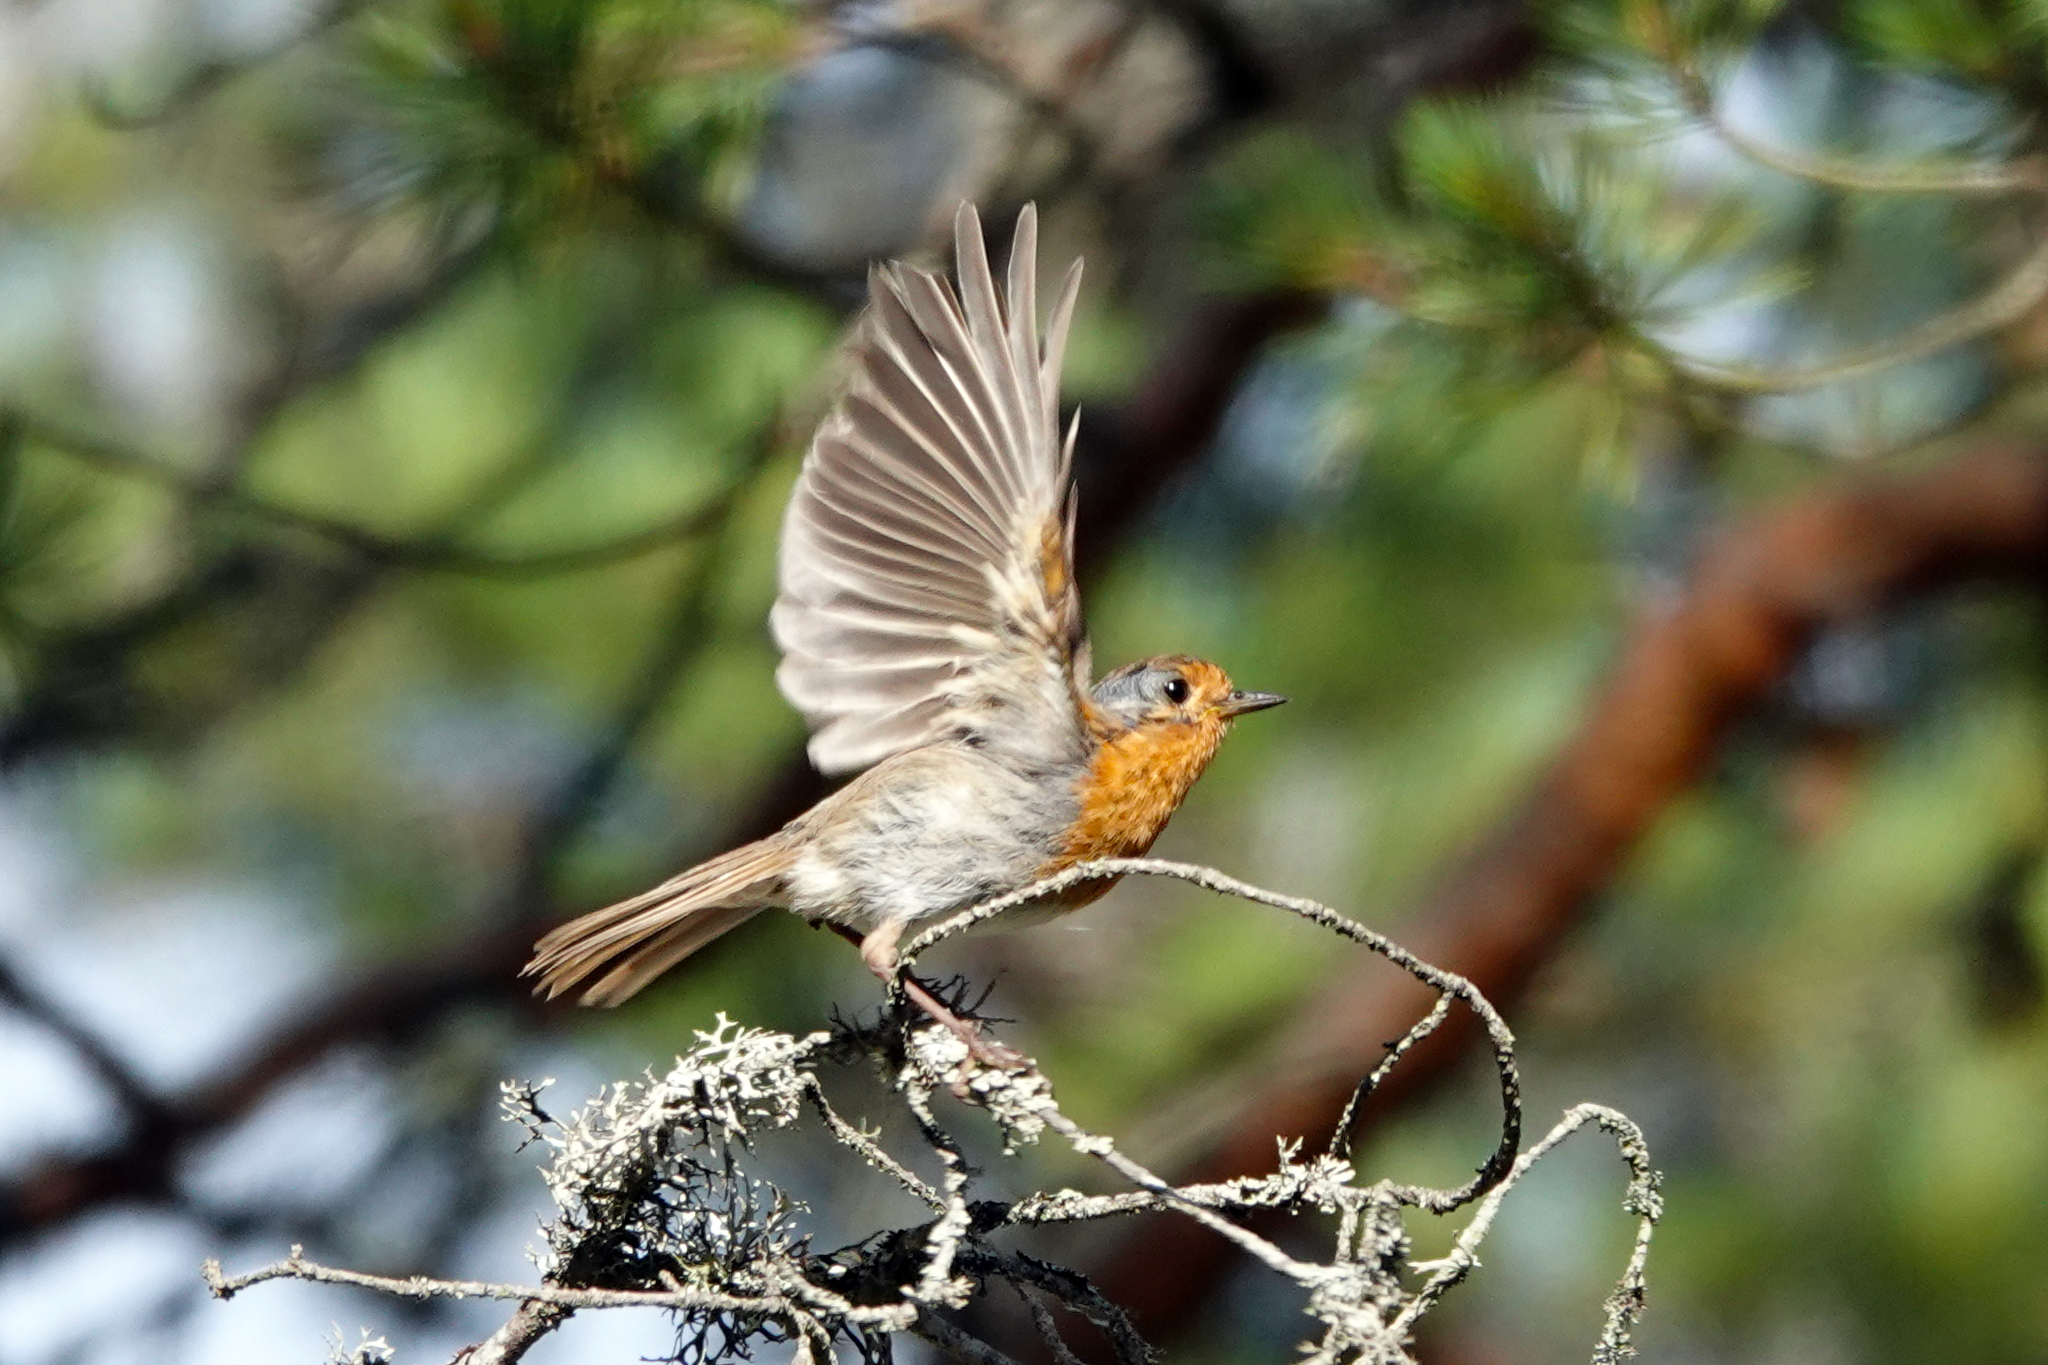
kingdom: Animalia
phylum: Chordata
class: Aves
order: Passeriformes
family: Muscicapidae
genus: Erithacus
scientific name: Erithacus rubecula
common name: European robin
